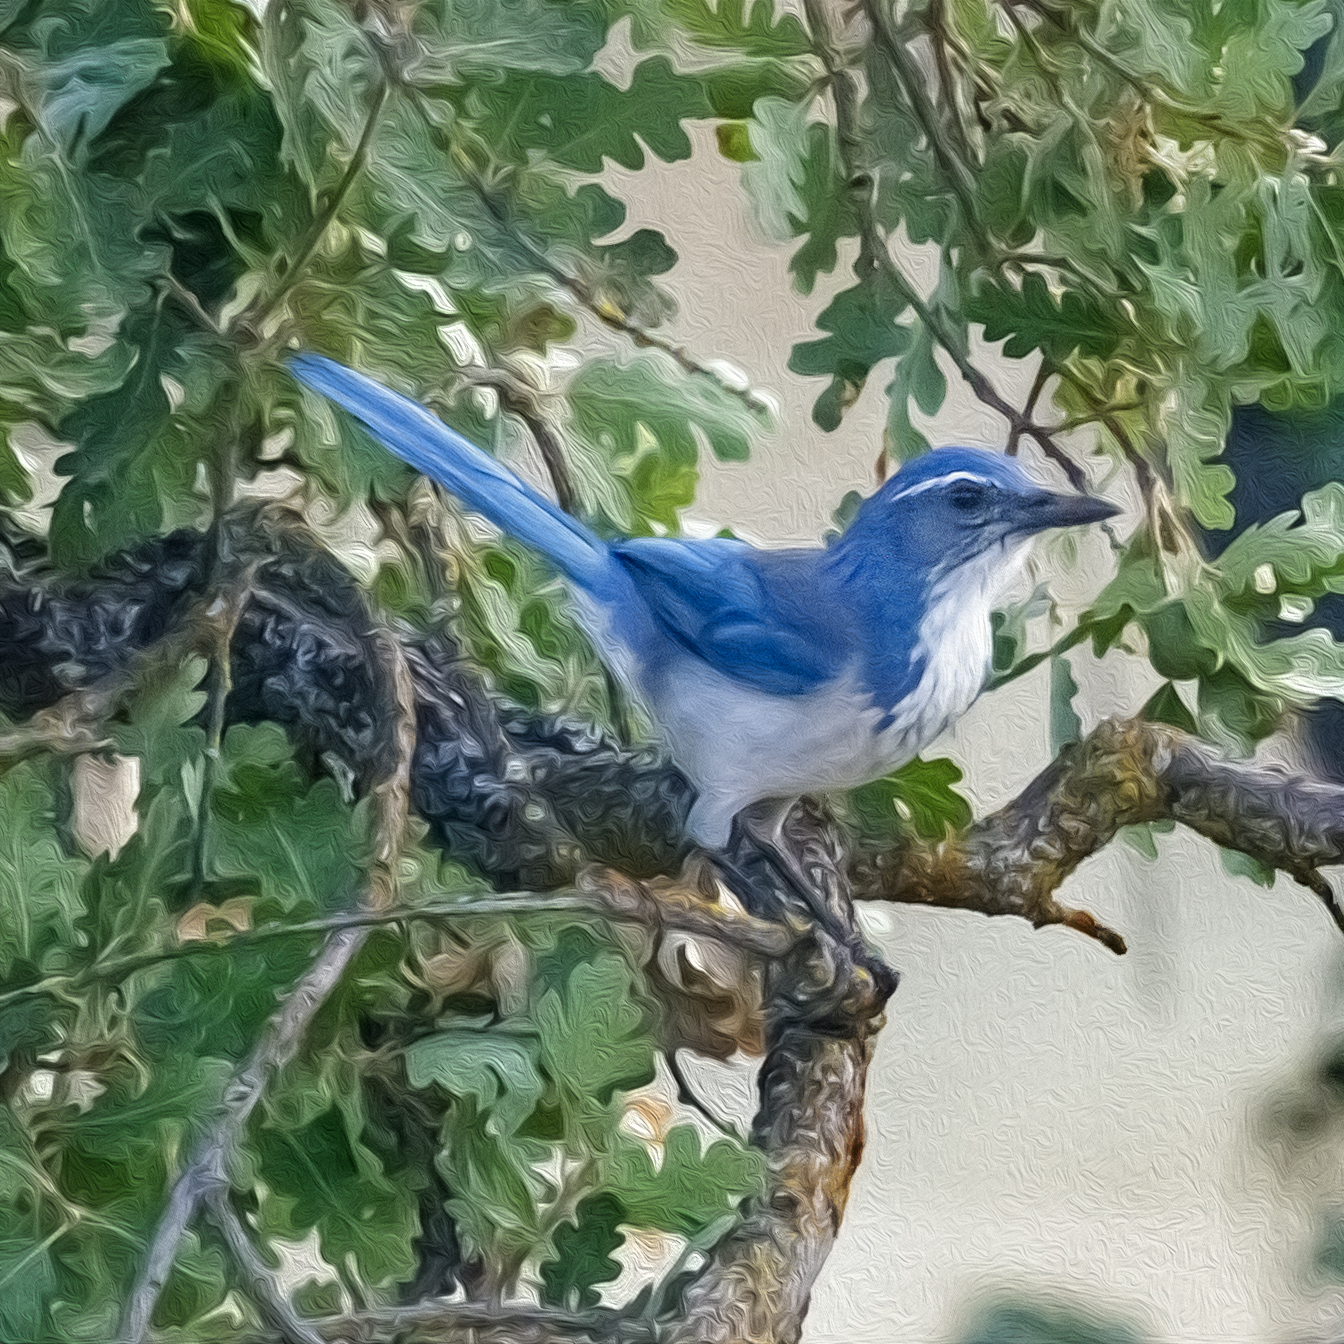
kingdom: Animalia
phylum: Chordata
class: Aves
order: Passeriformes
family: Corvidae
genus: Aphelocoma
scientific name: Aphelocoma californica
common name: California scrub-jay
